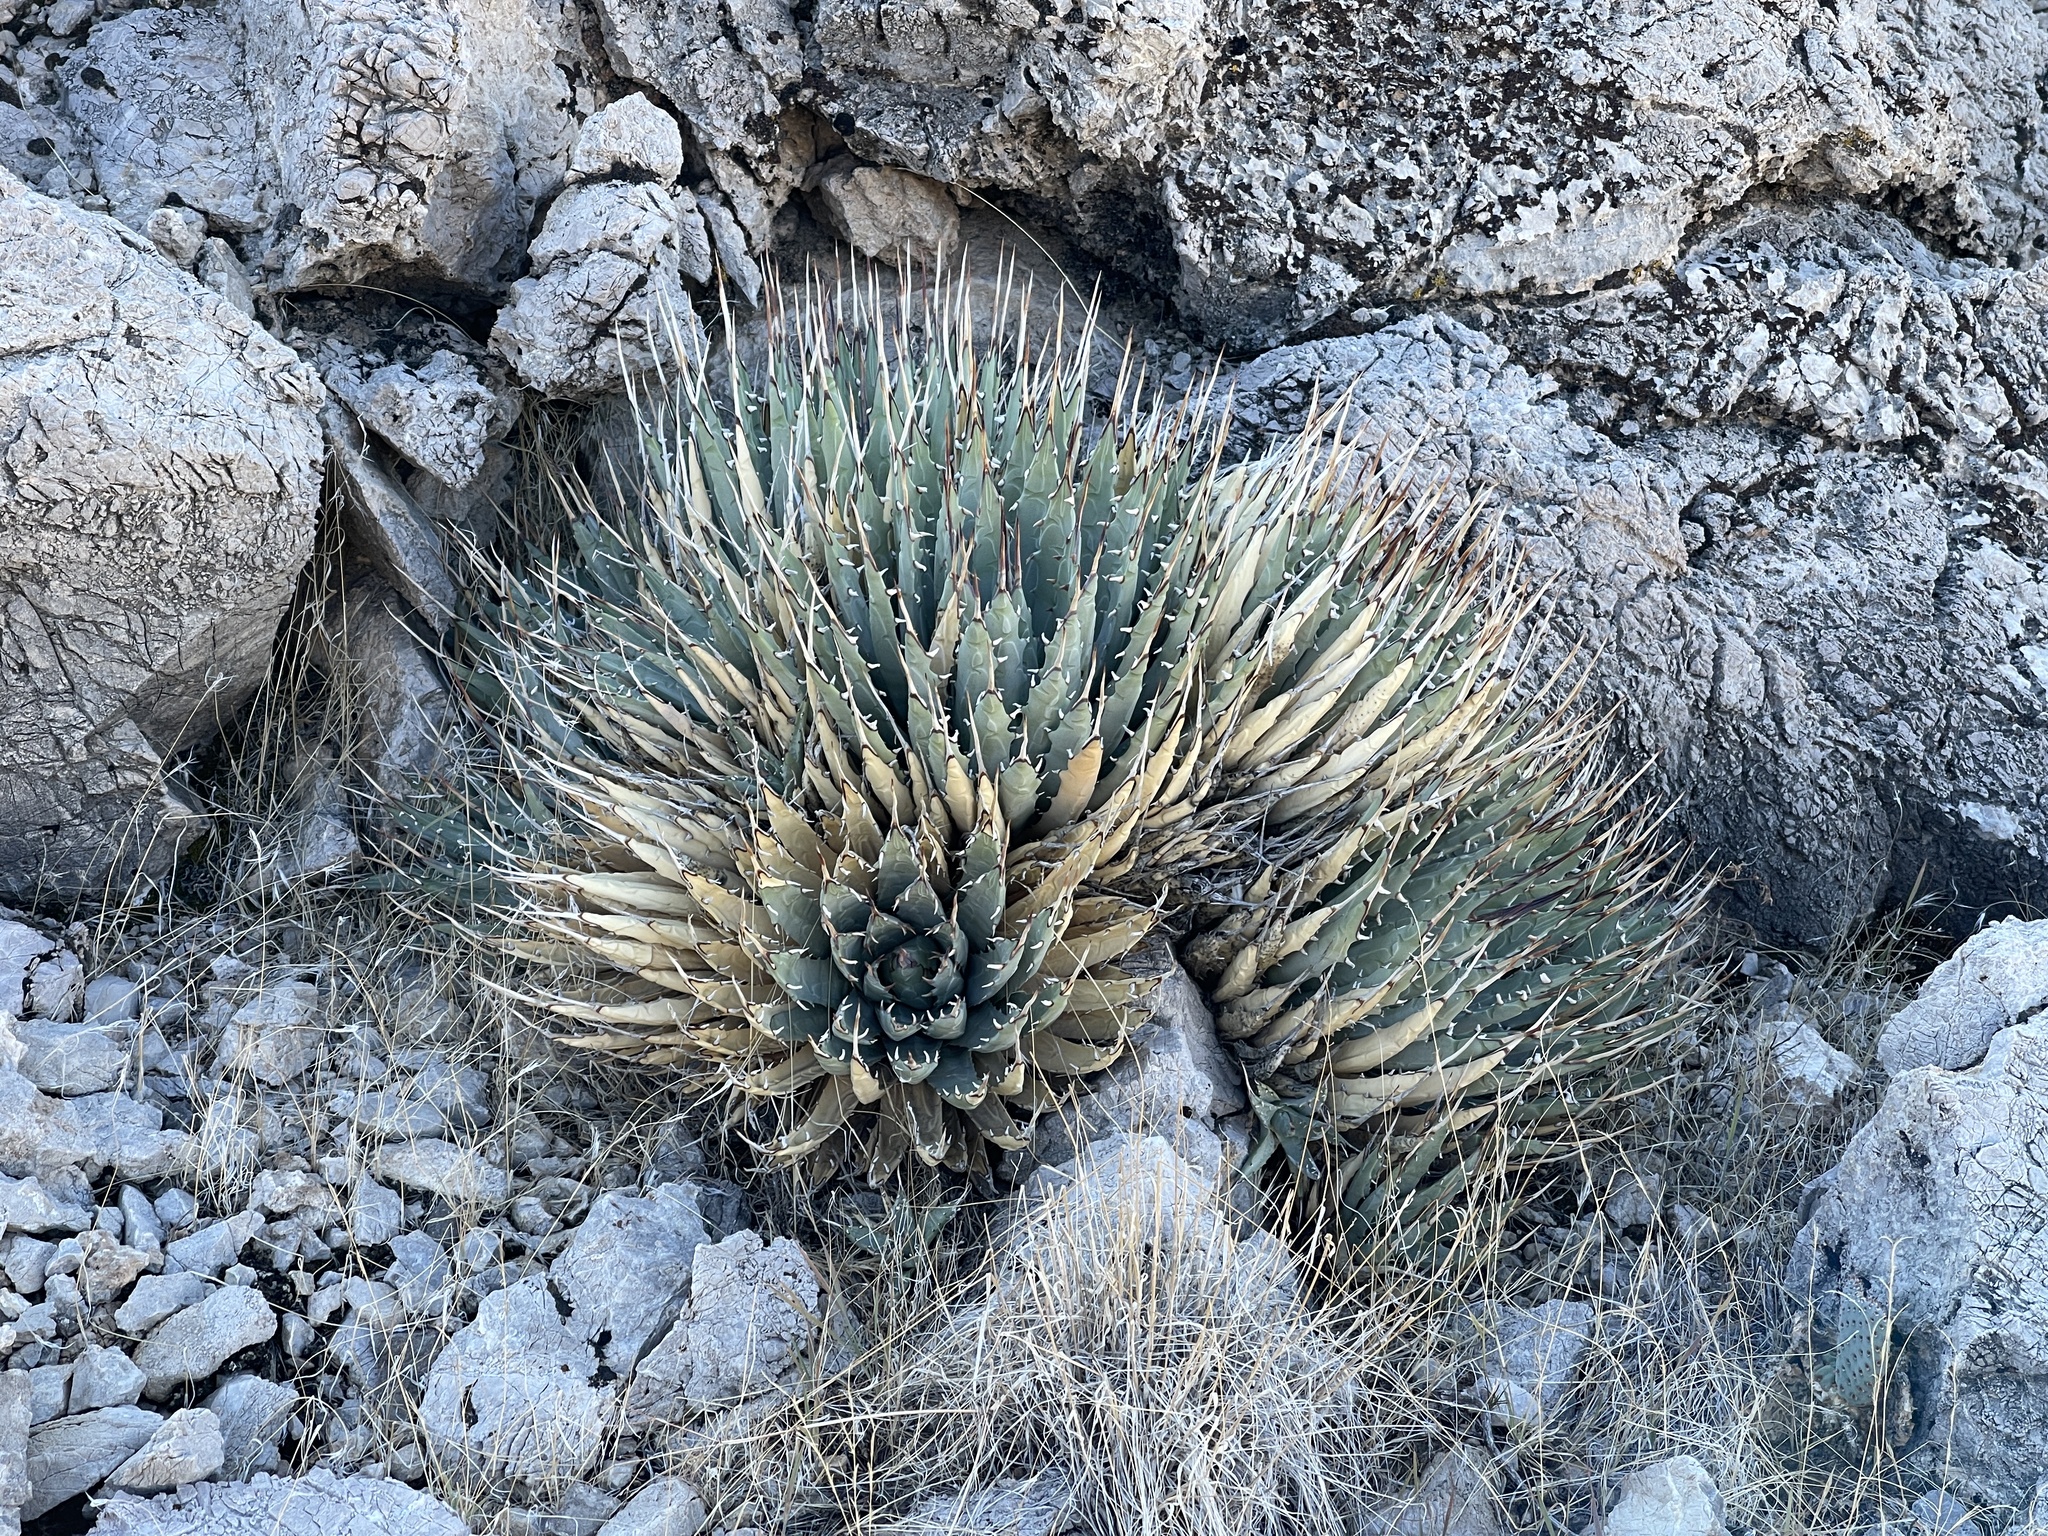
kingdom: Plantae
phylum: Tracheophyta
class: Liliopsida
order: Asparagales
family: Asparagaceae
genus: Agave
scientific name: Agave utahensis
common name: Utah agave
